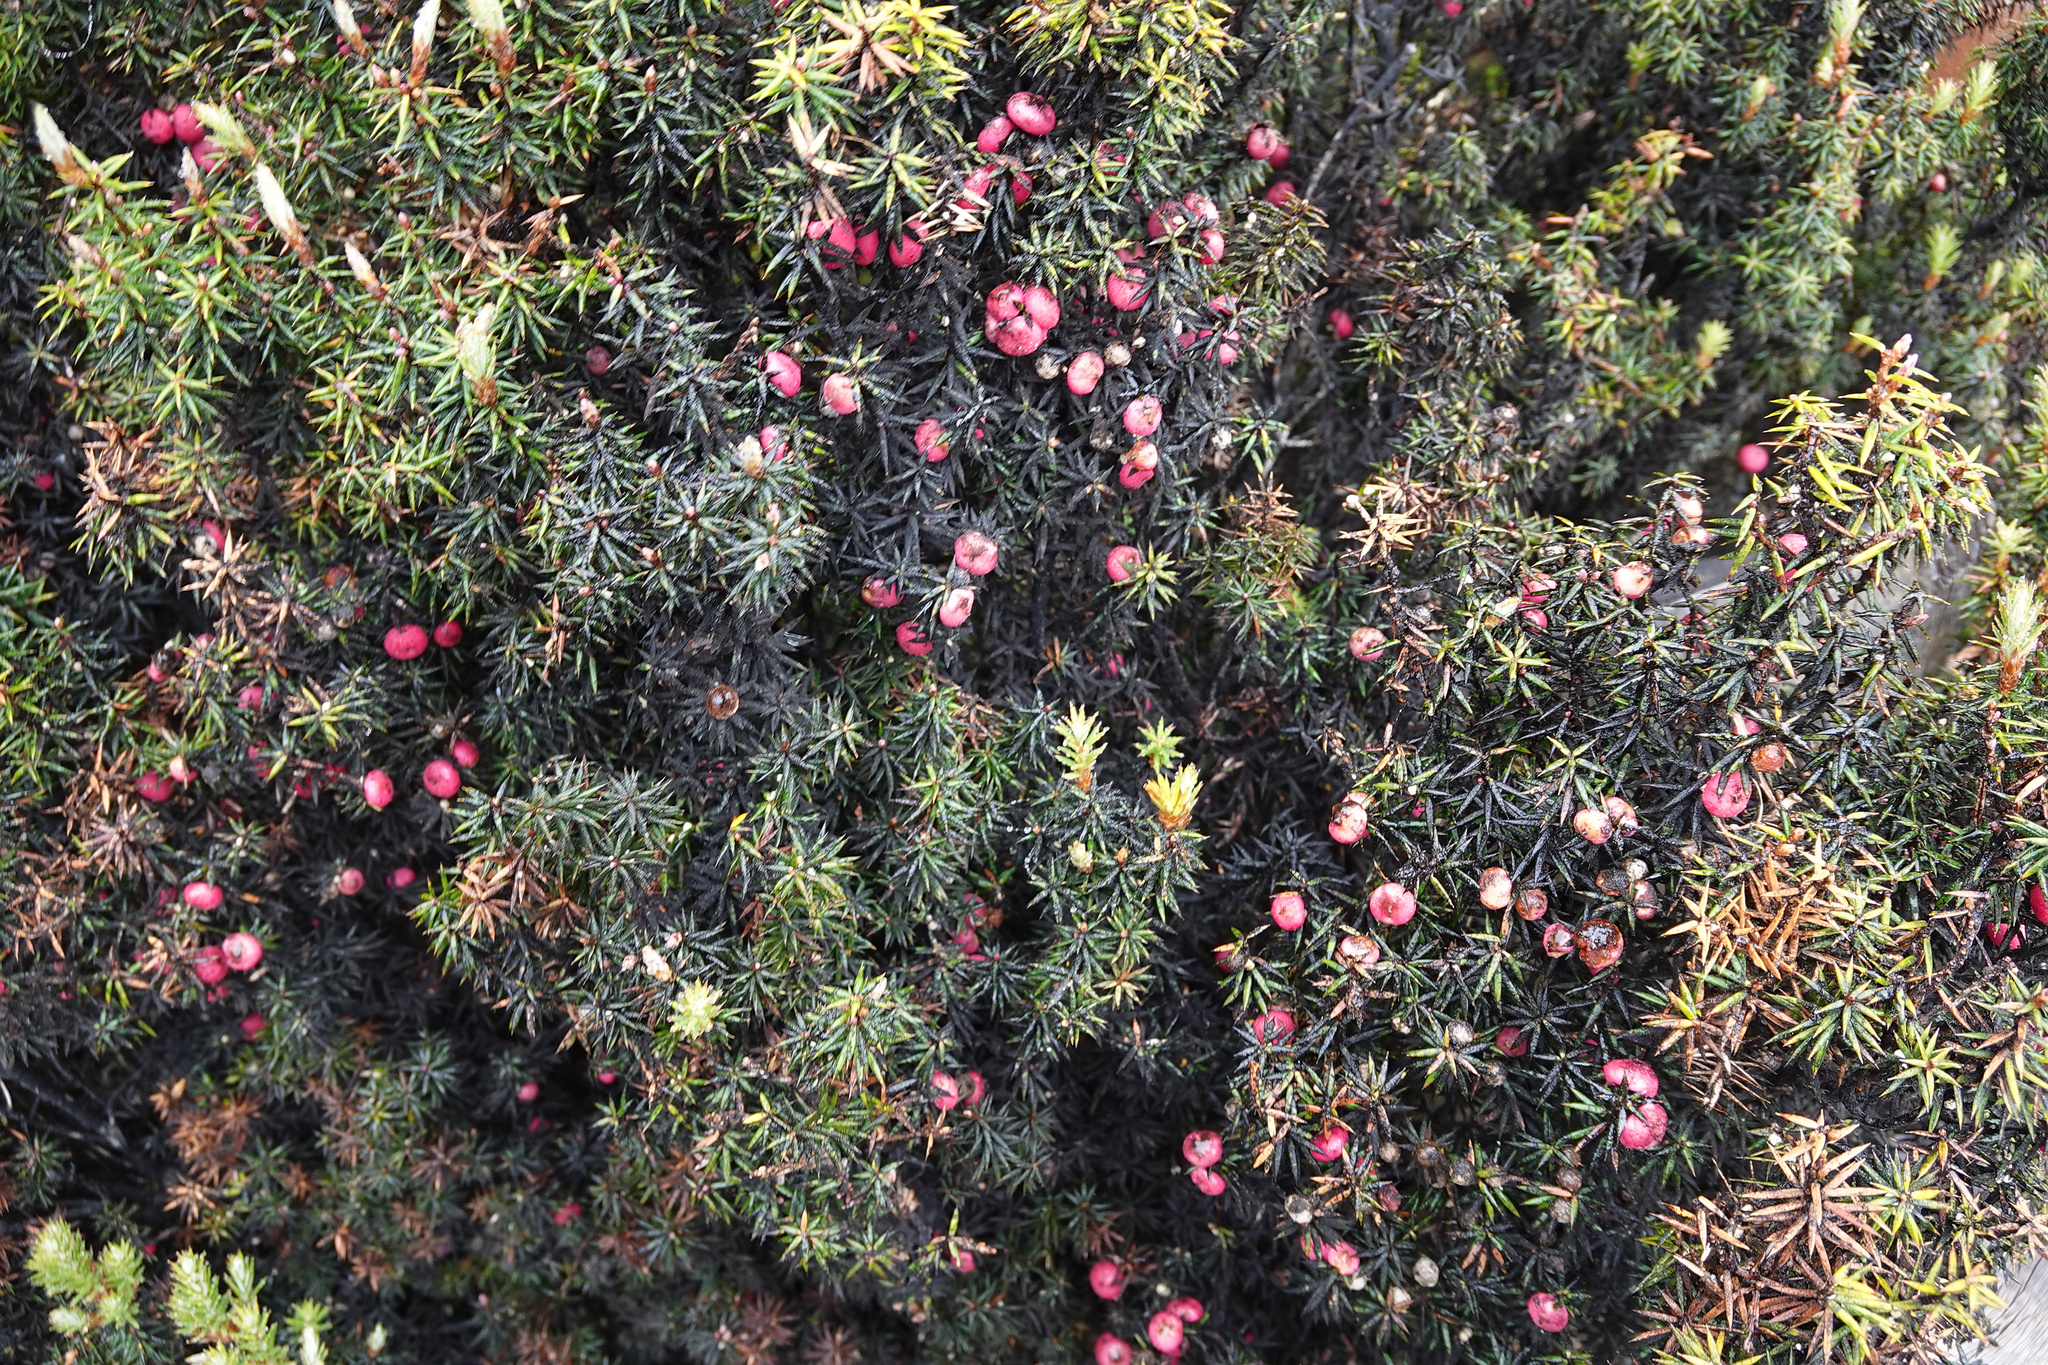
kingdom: Plantae
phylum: Tracheophyta
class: Magnoliopsida
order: Ericales
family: Ericaceae
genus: Leptecophylla
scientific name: Leptecophylla parvifolia
